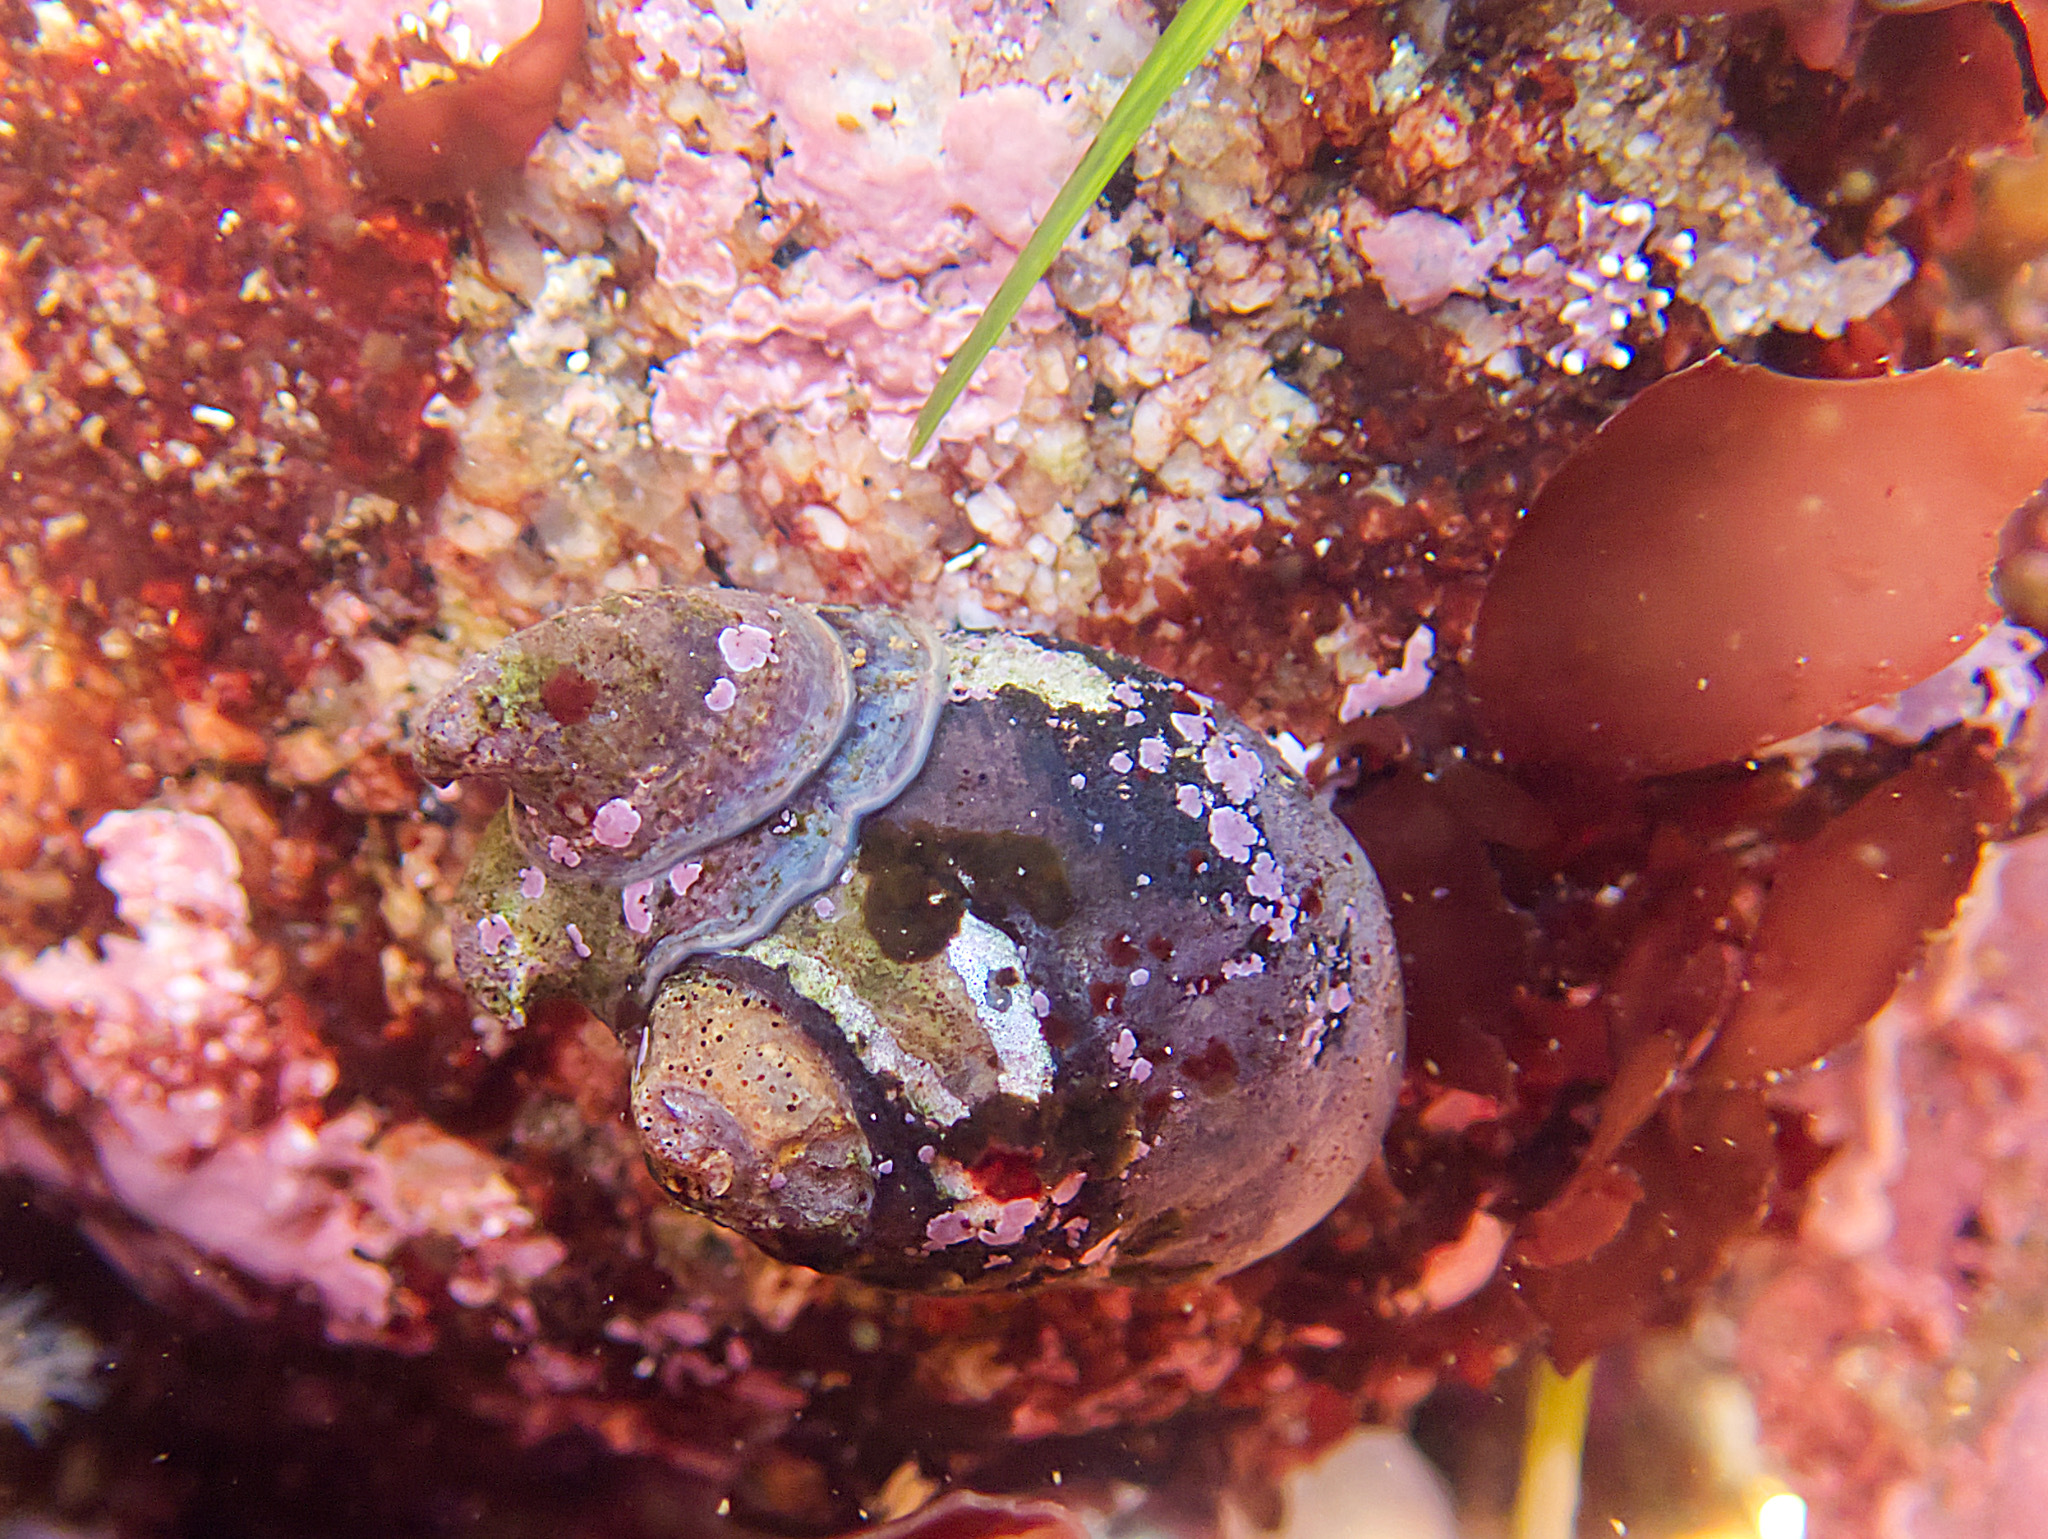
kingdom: Animalia
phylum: Mollusca
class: Gastropoda
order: Trochida
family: Tegulidae
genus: Tegula
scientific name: Tegula funebralis
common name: Black tegula
